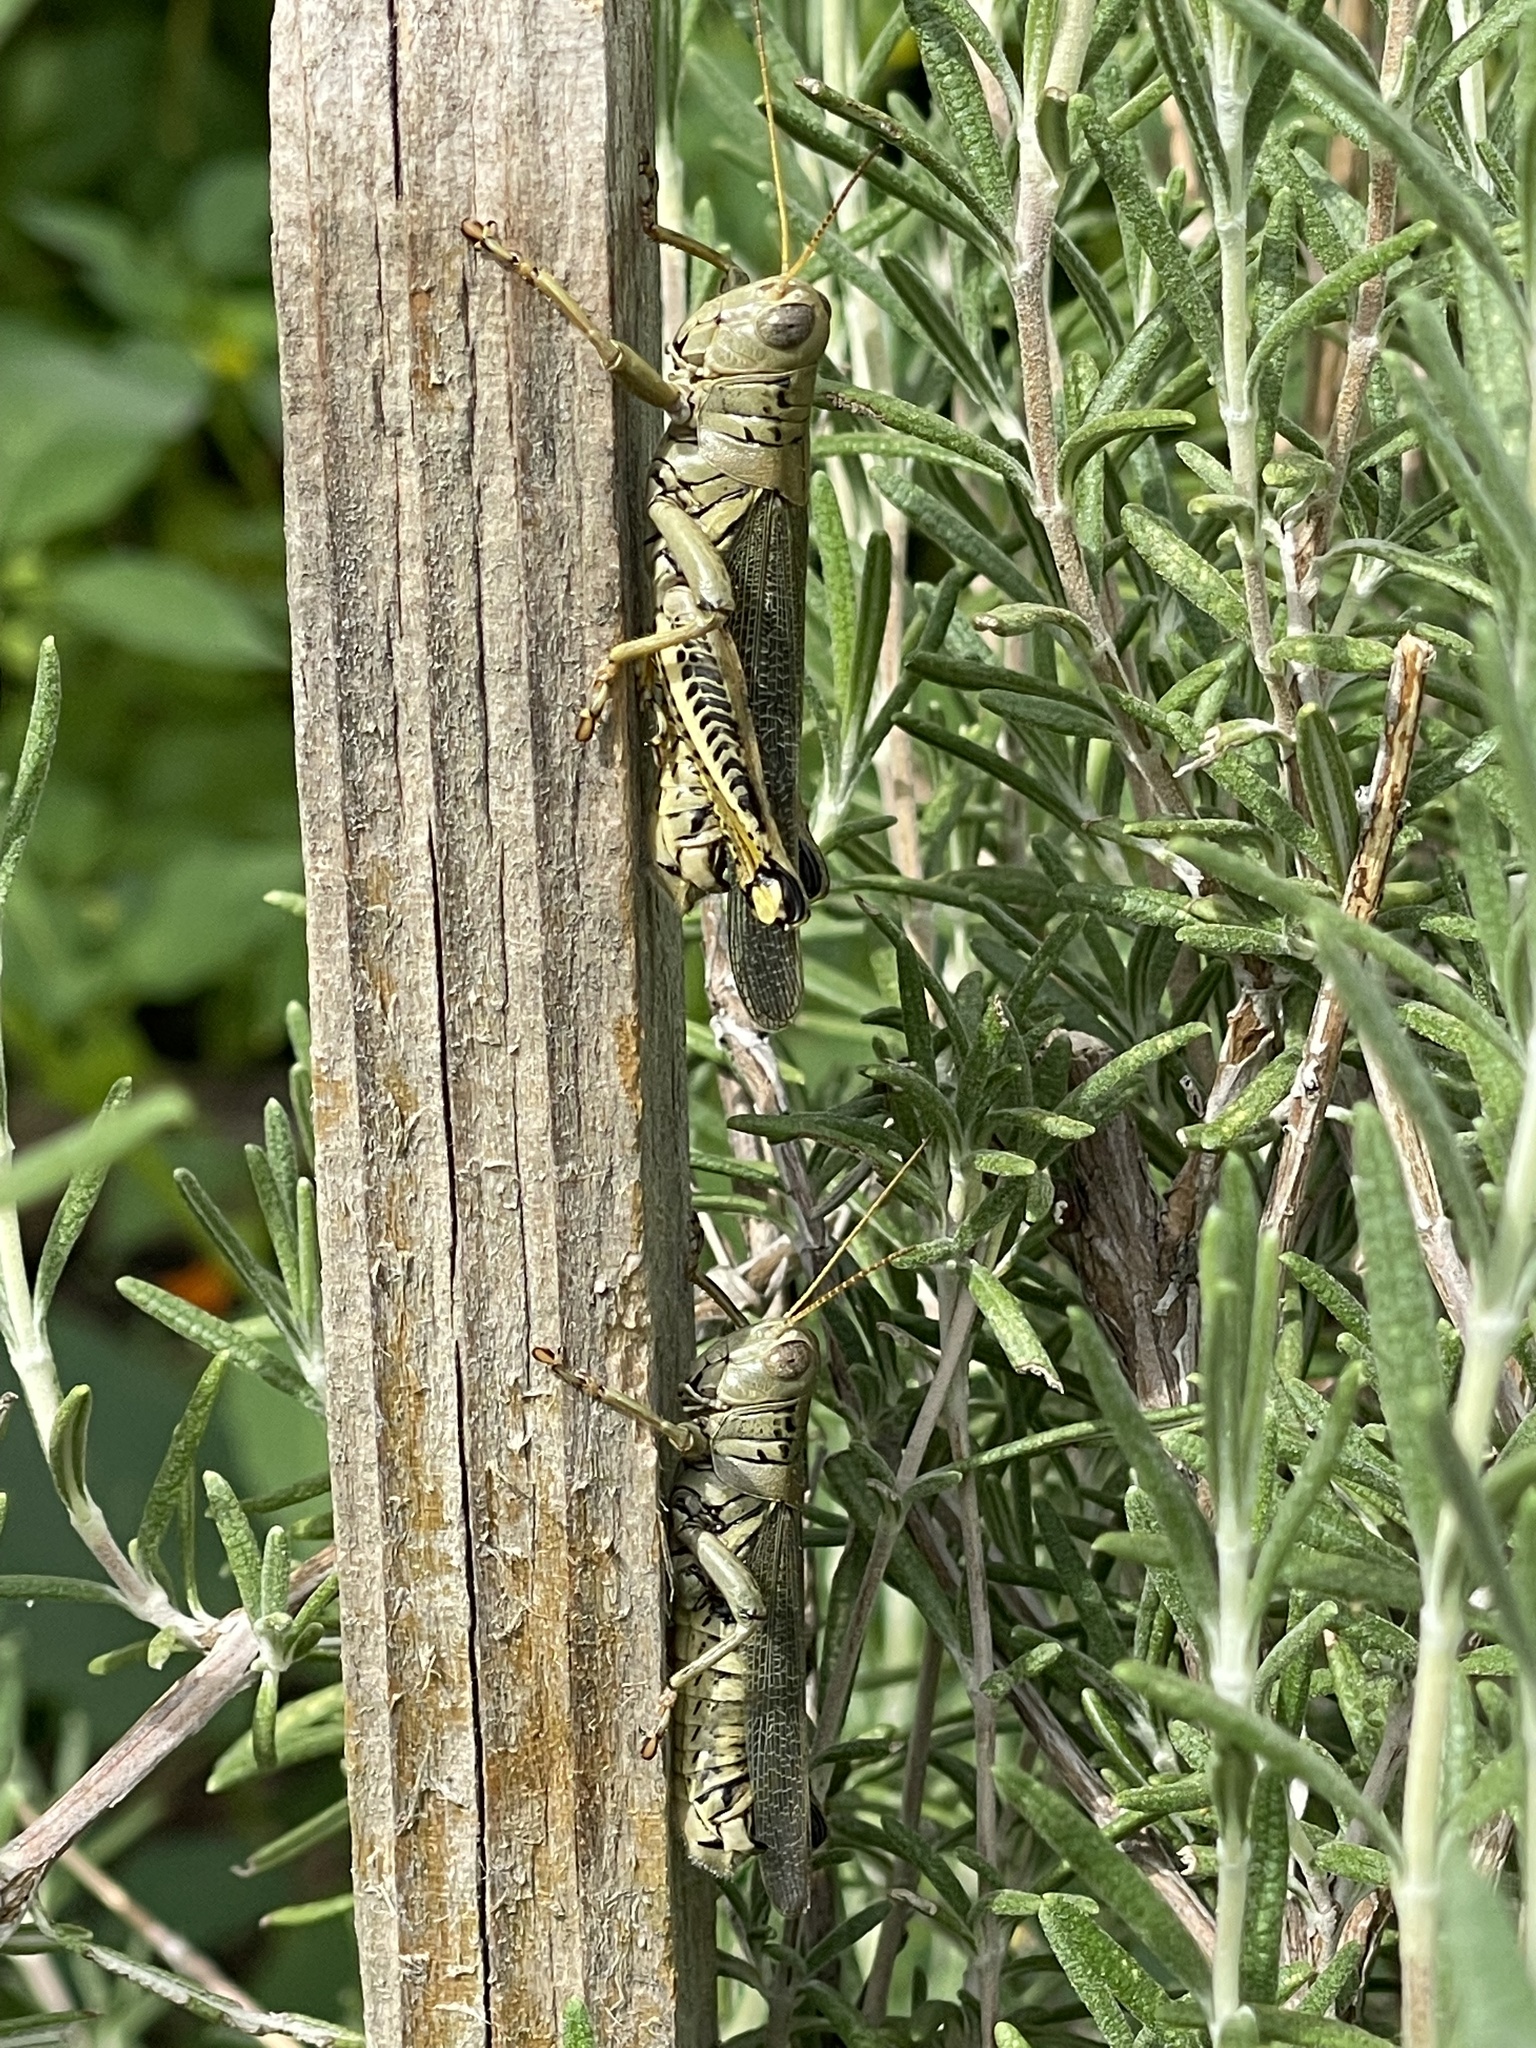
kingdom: Animalia
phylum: Arthropoda
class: Insecta
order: Orthoptera
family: Acrididae
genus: Melanoplus
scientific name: Melanoplus differentialis
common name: Differential grasshopper
